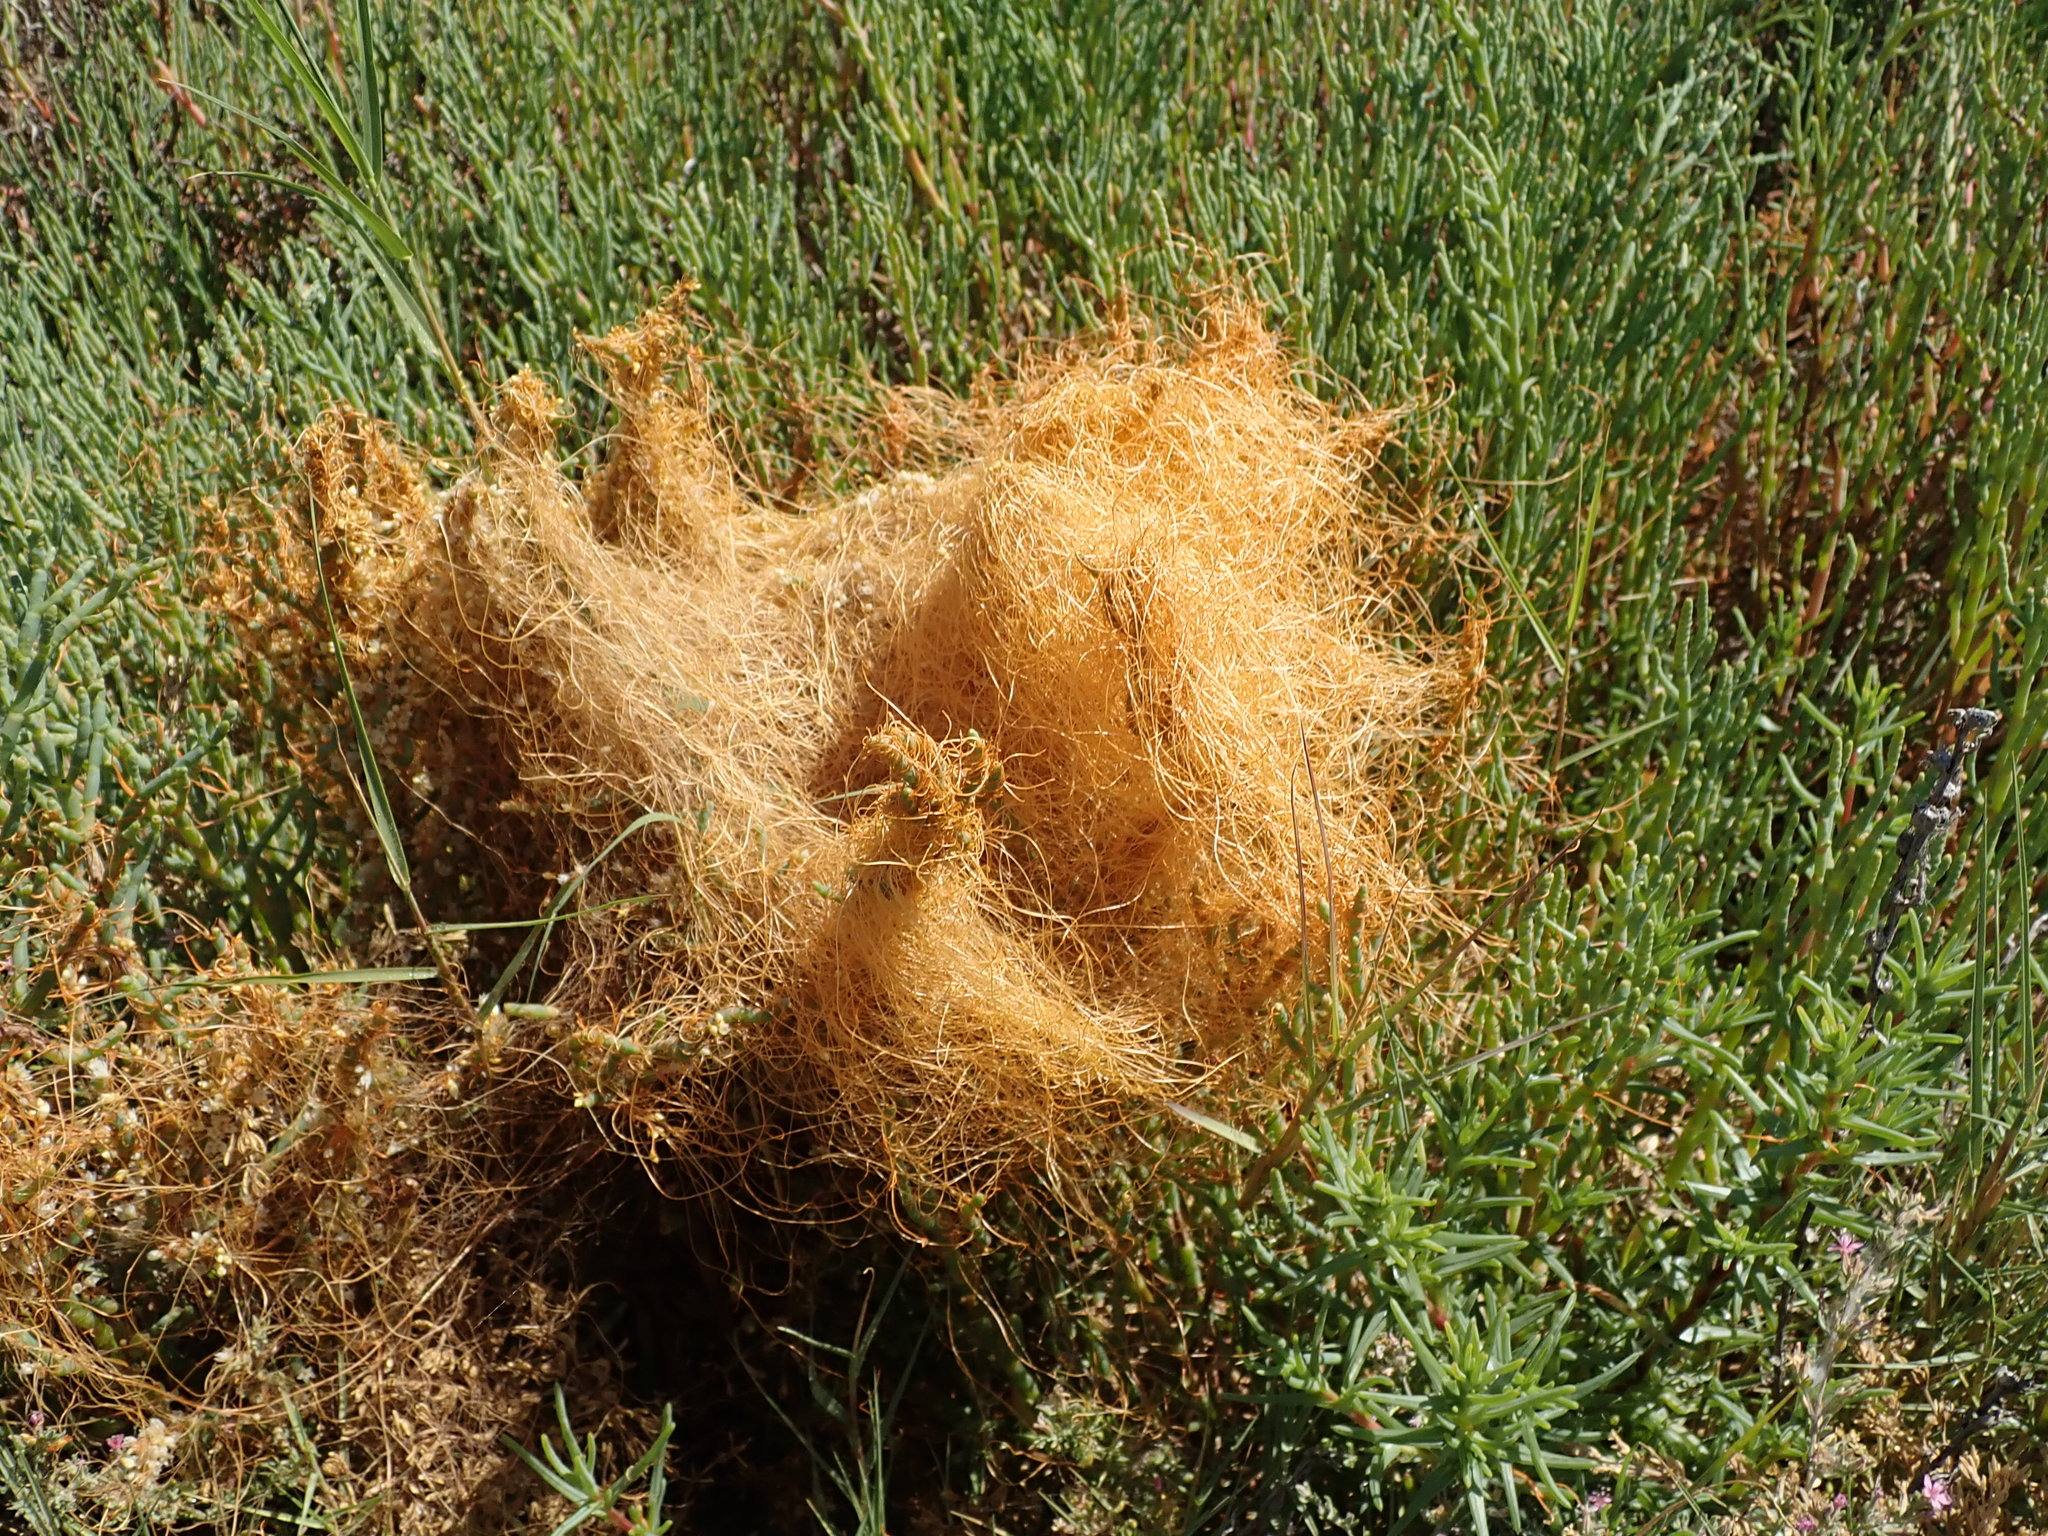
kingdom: Plantae
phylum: Tracheophyta
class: Magnoliopsida
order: Solanales
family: Convolvulaceae
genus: Cuscuta
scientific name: Cuscuta pacifica
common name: Large saltmarsh dodder
